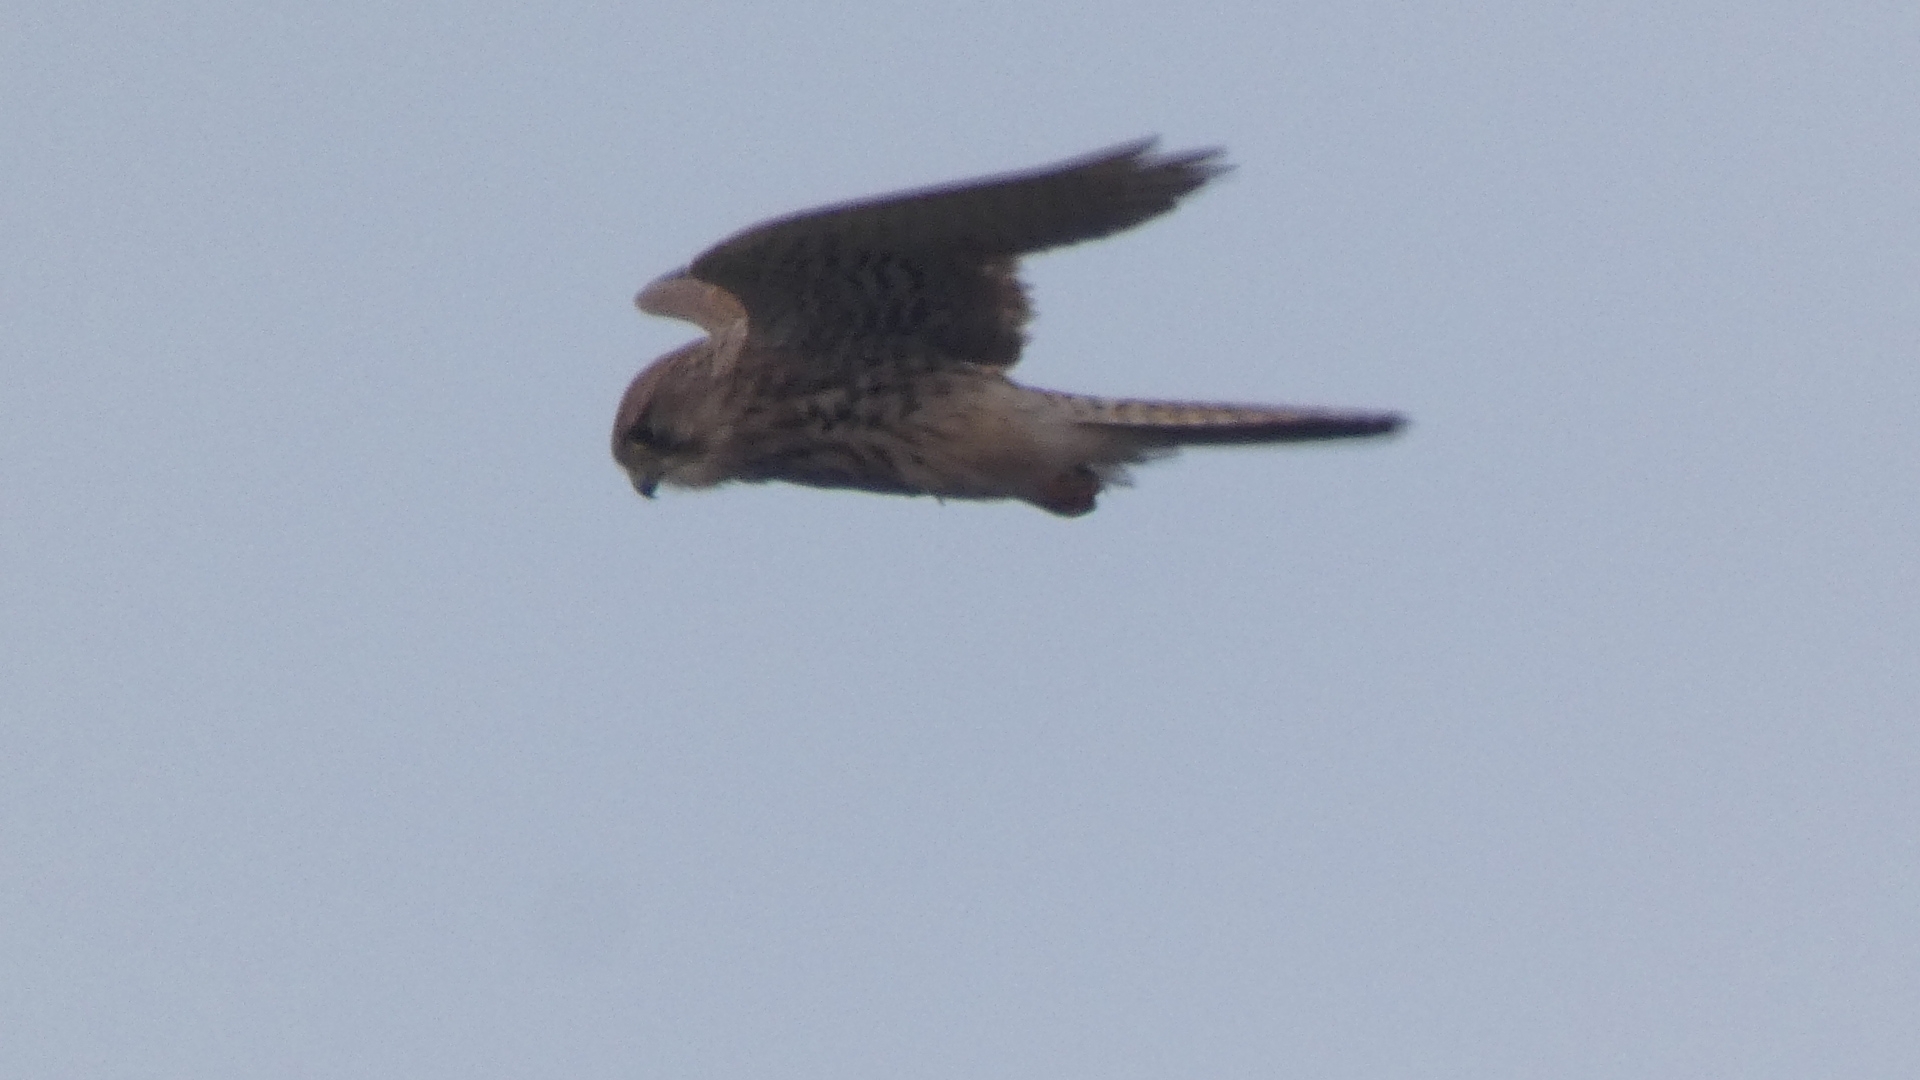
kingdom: Animalia
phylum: Chordata
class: Aves
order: Falconiformes
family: Falconidae
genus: Falco
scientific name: Falco tinnunculus
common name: Common kestrel
